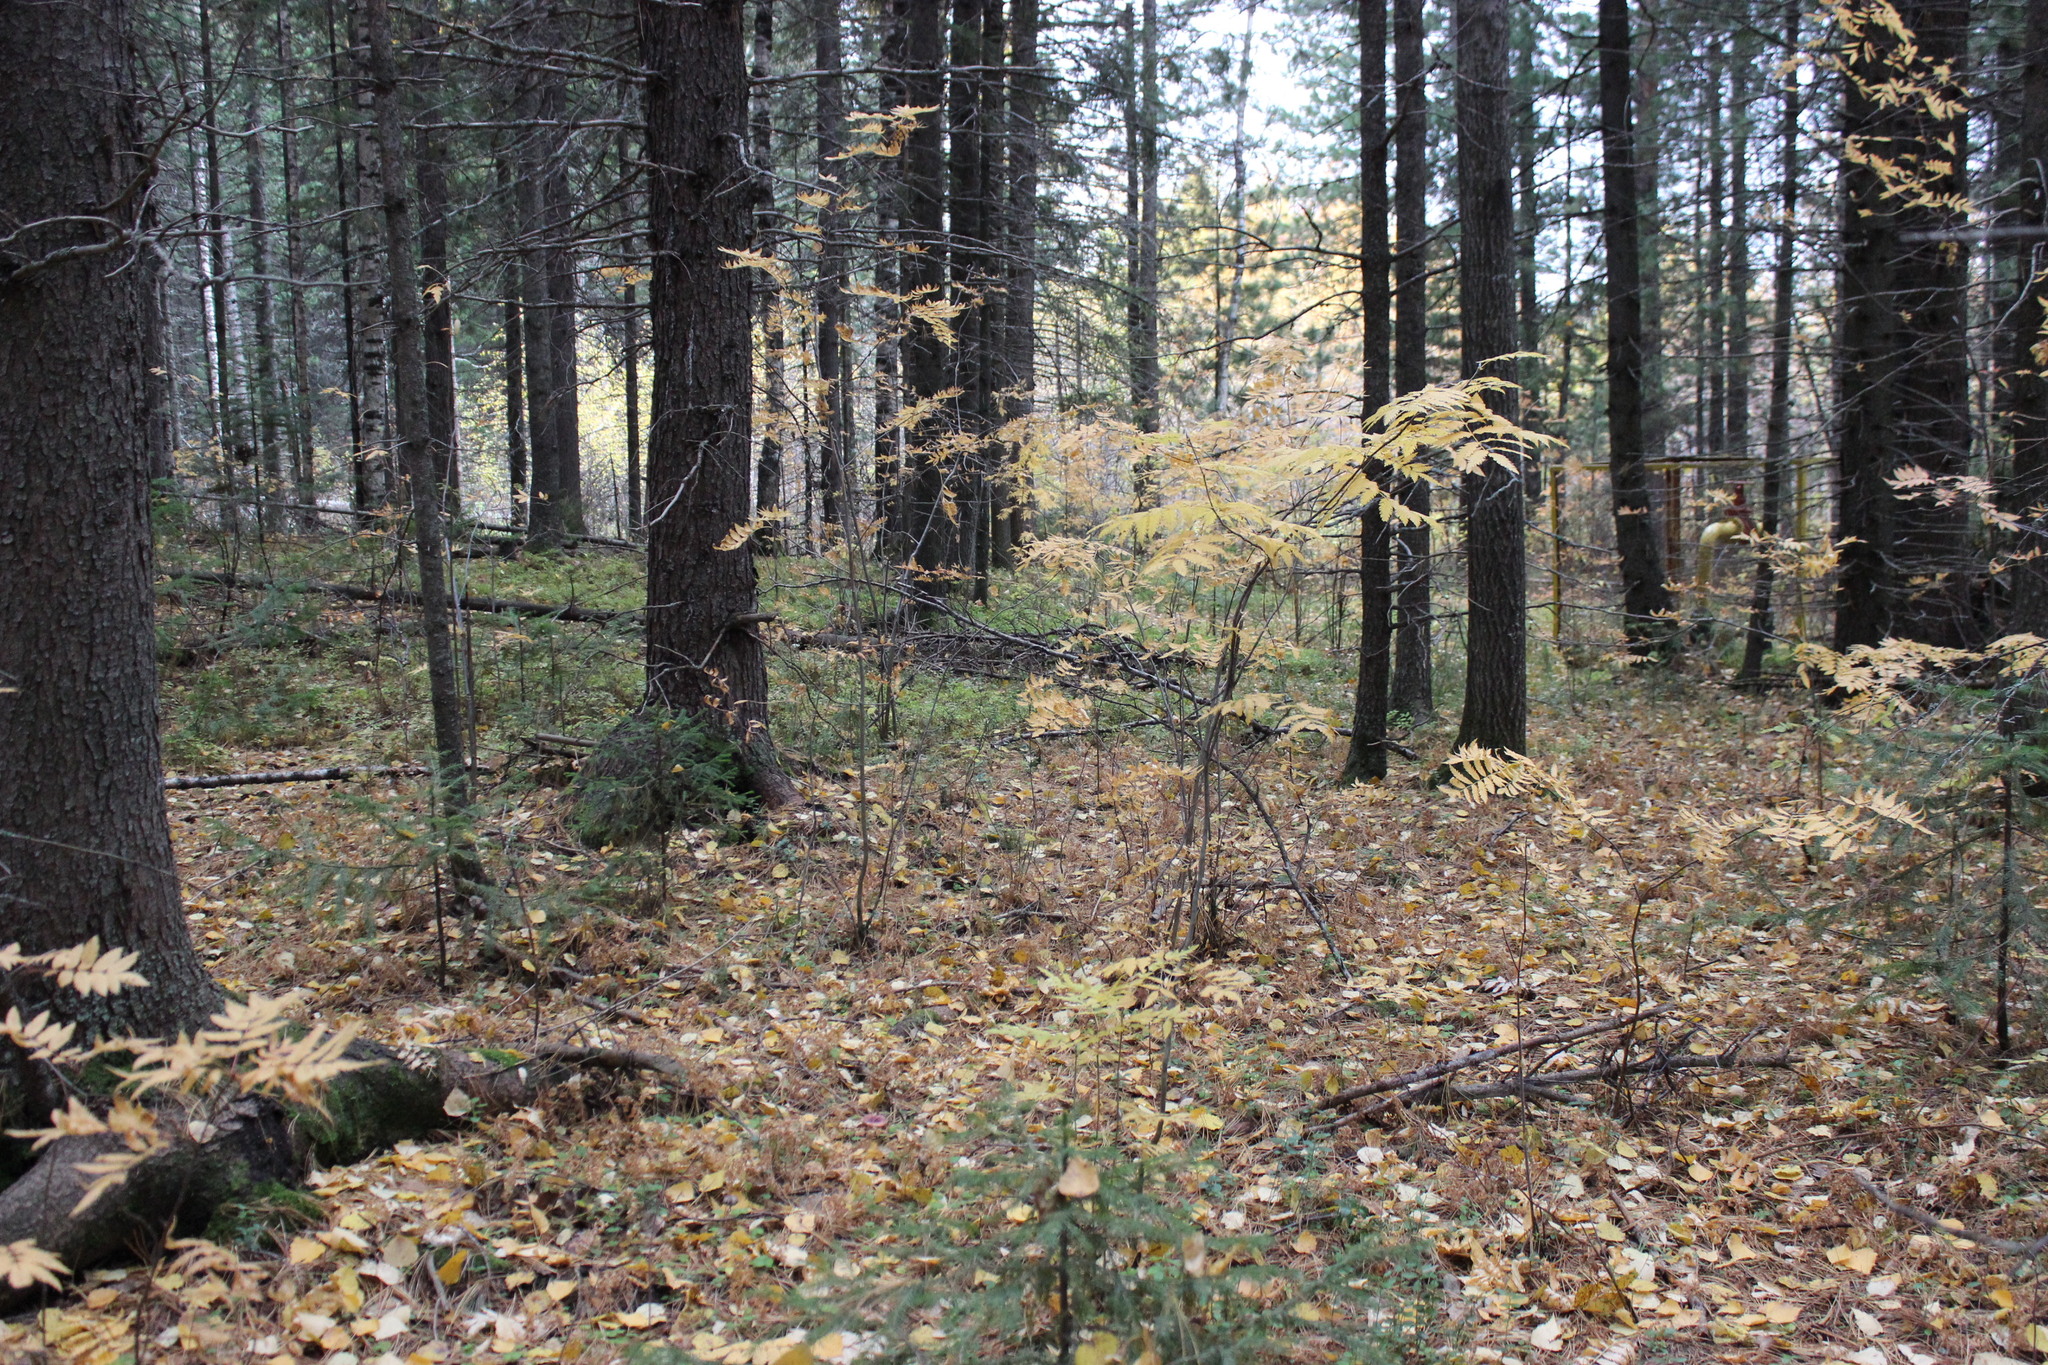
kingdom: Plantae
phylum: Tracheophyta
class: Magnoliopsida
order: Rosales
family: Rosaceae
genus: Sorbus
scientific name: Sorbus aucuparia
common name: Rowan
